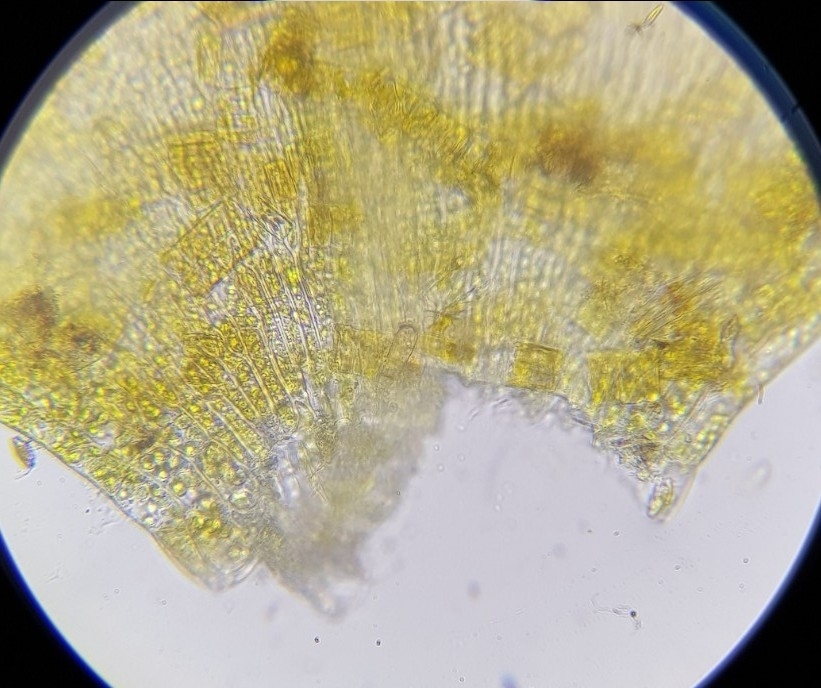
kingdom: Plantae
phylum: Bryophyta
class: Bryopsida
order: Hypnales
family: Brachytheciaceae
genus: Rhynchostegium
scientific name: Rhynchostegium riparioides
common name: Platyhypnidium moss
